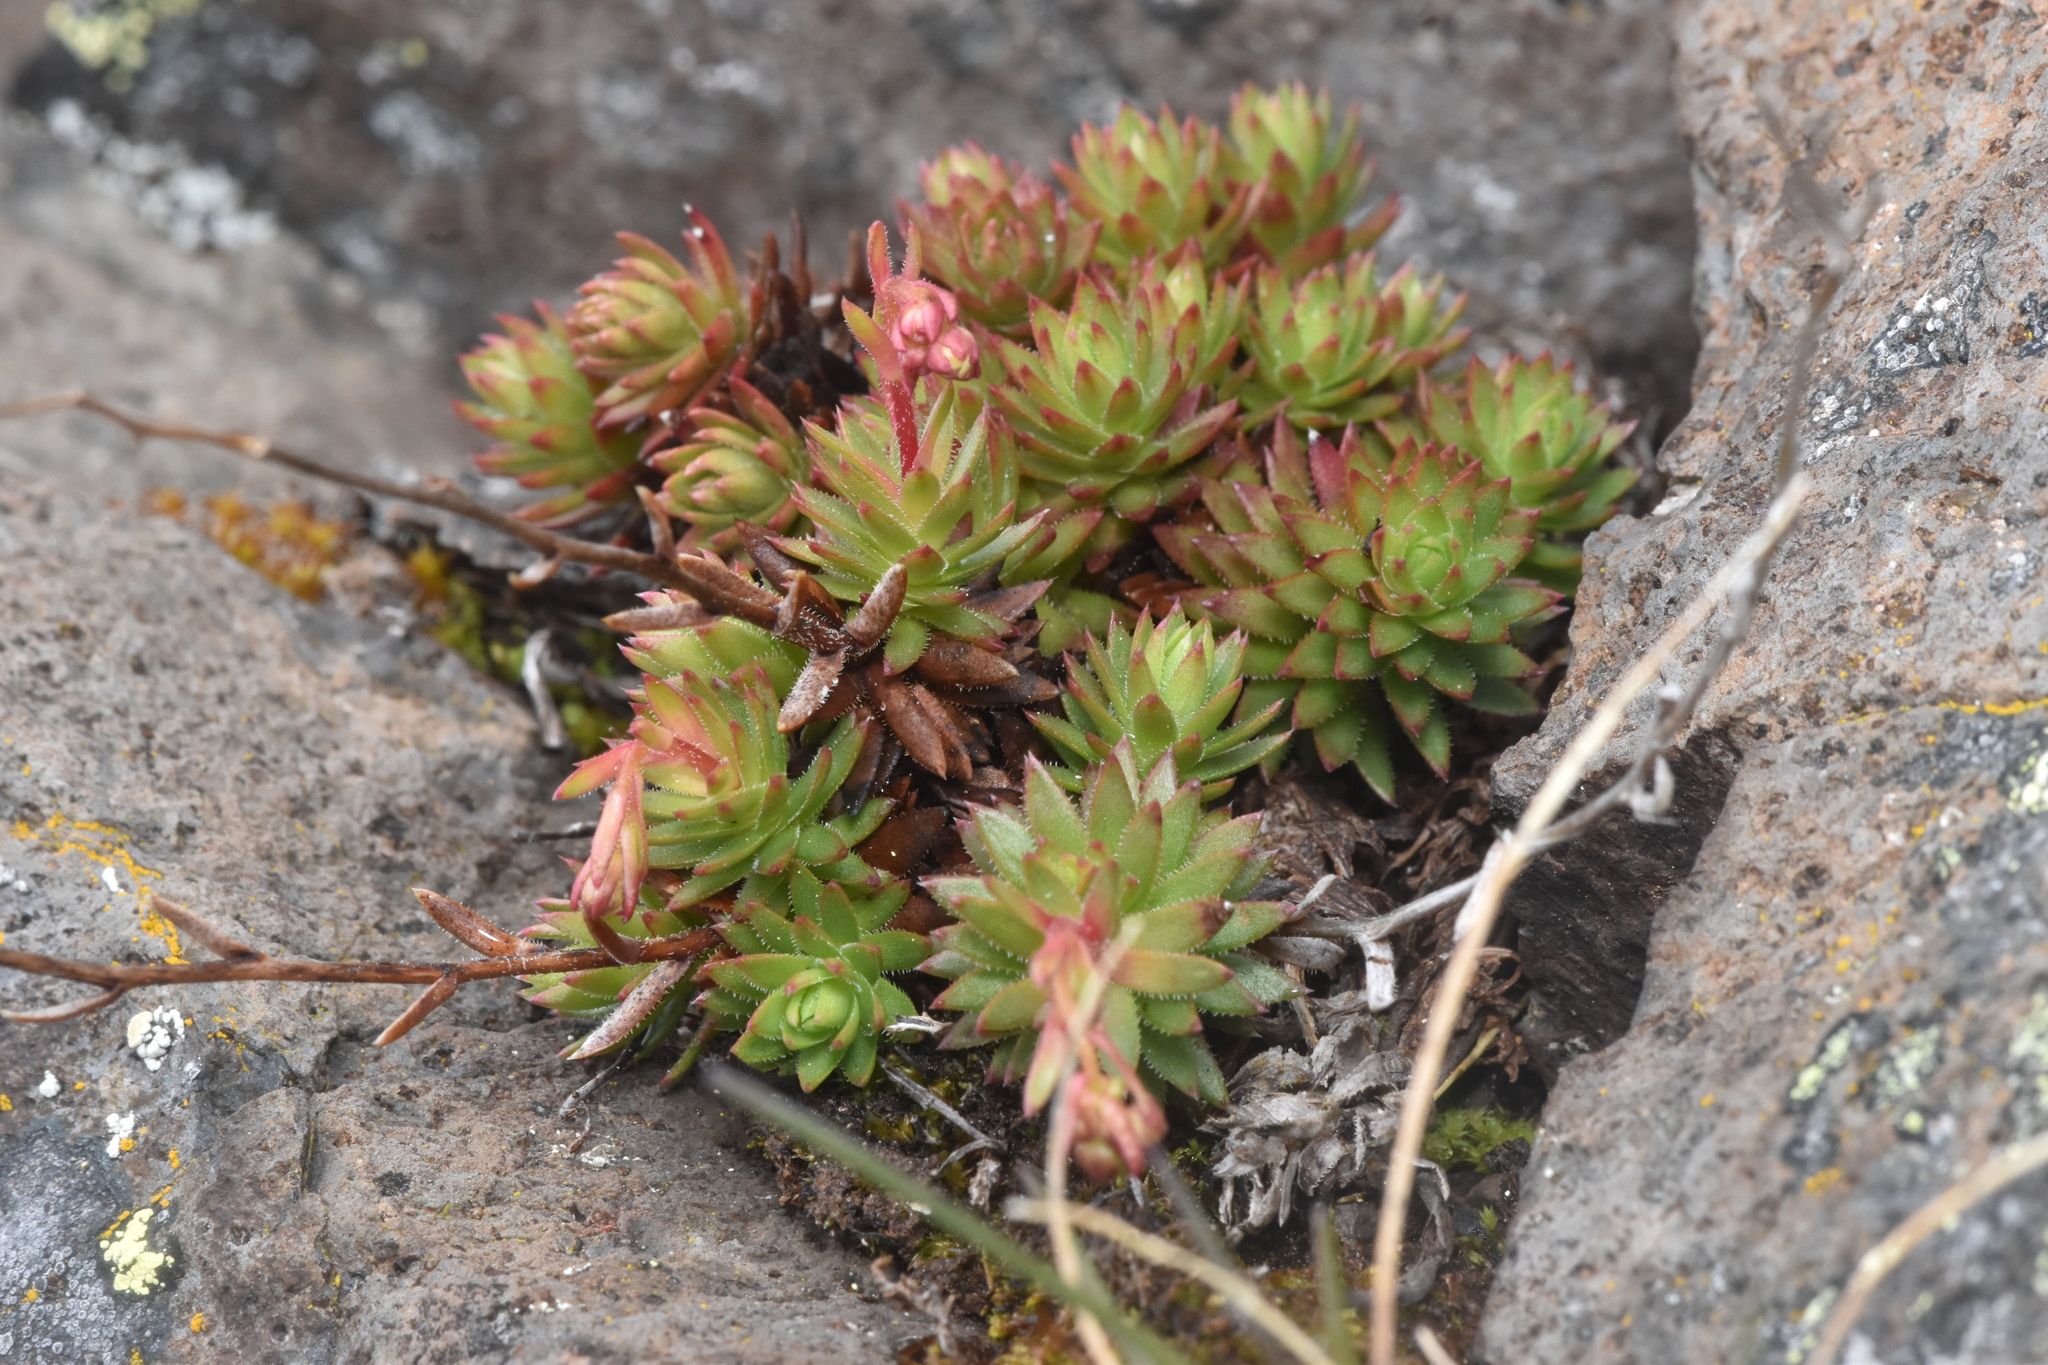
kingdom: Plantae
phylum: Tracheophyta
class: Magnoliopsida
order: Saxifragales
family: Saxifragaceae
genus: Saxifraga
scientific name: Saxifraga bronchialis
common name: Matted saxifrage
